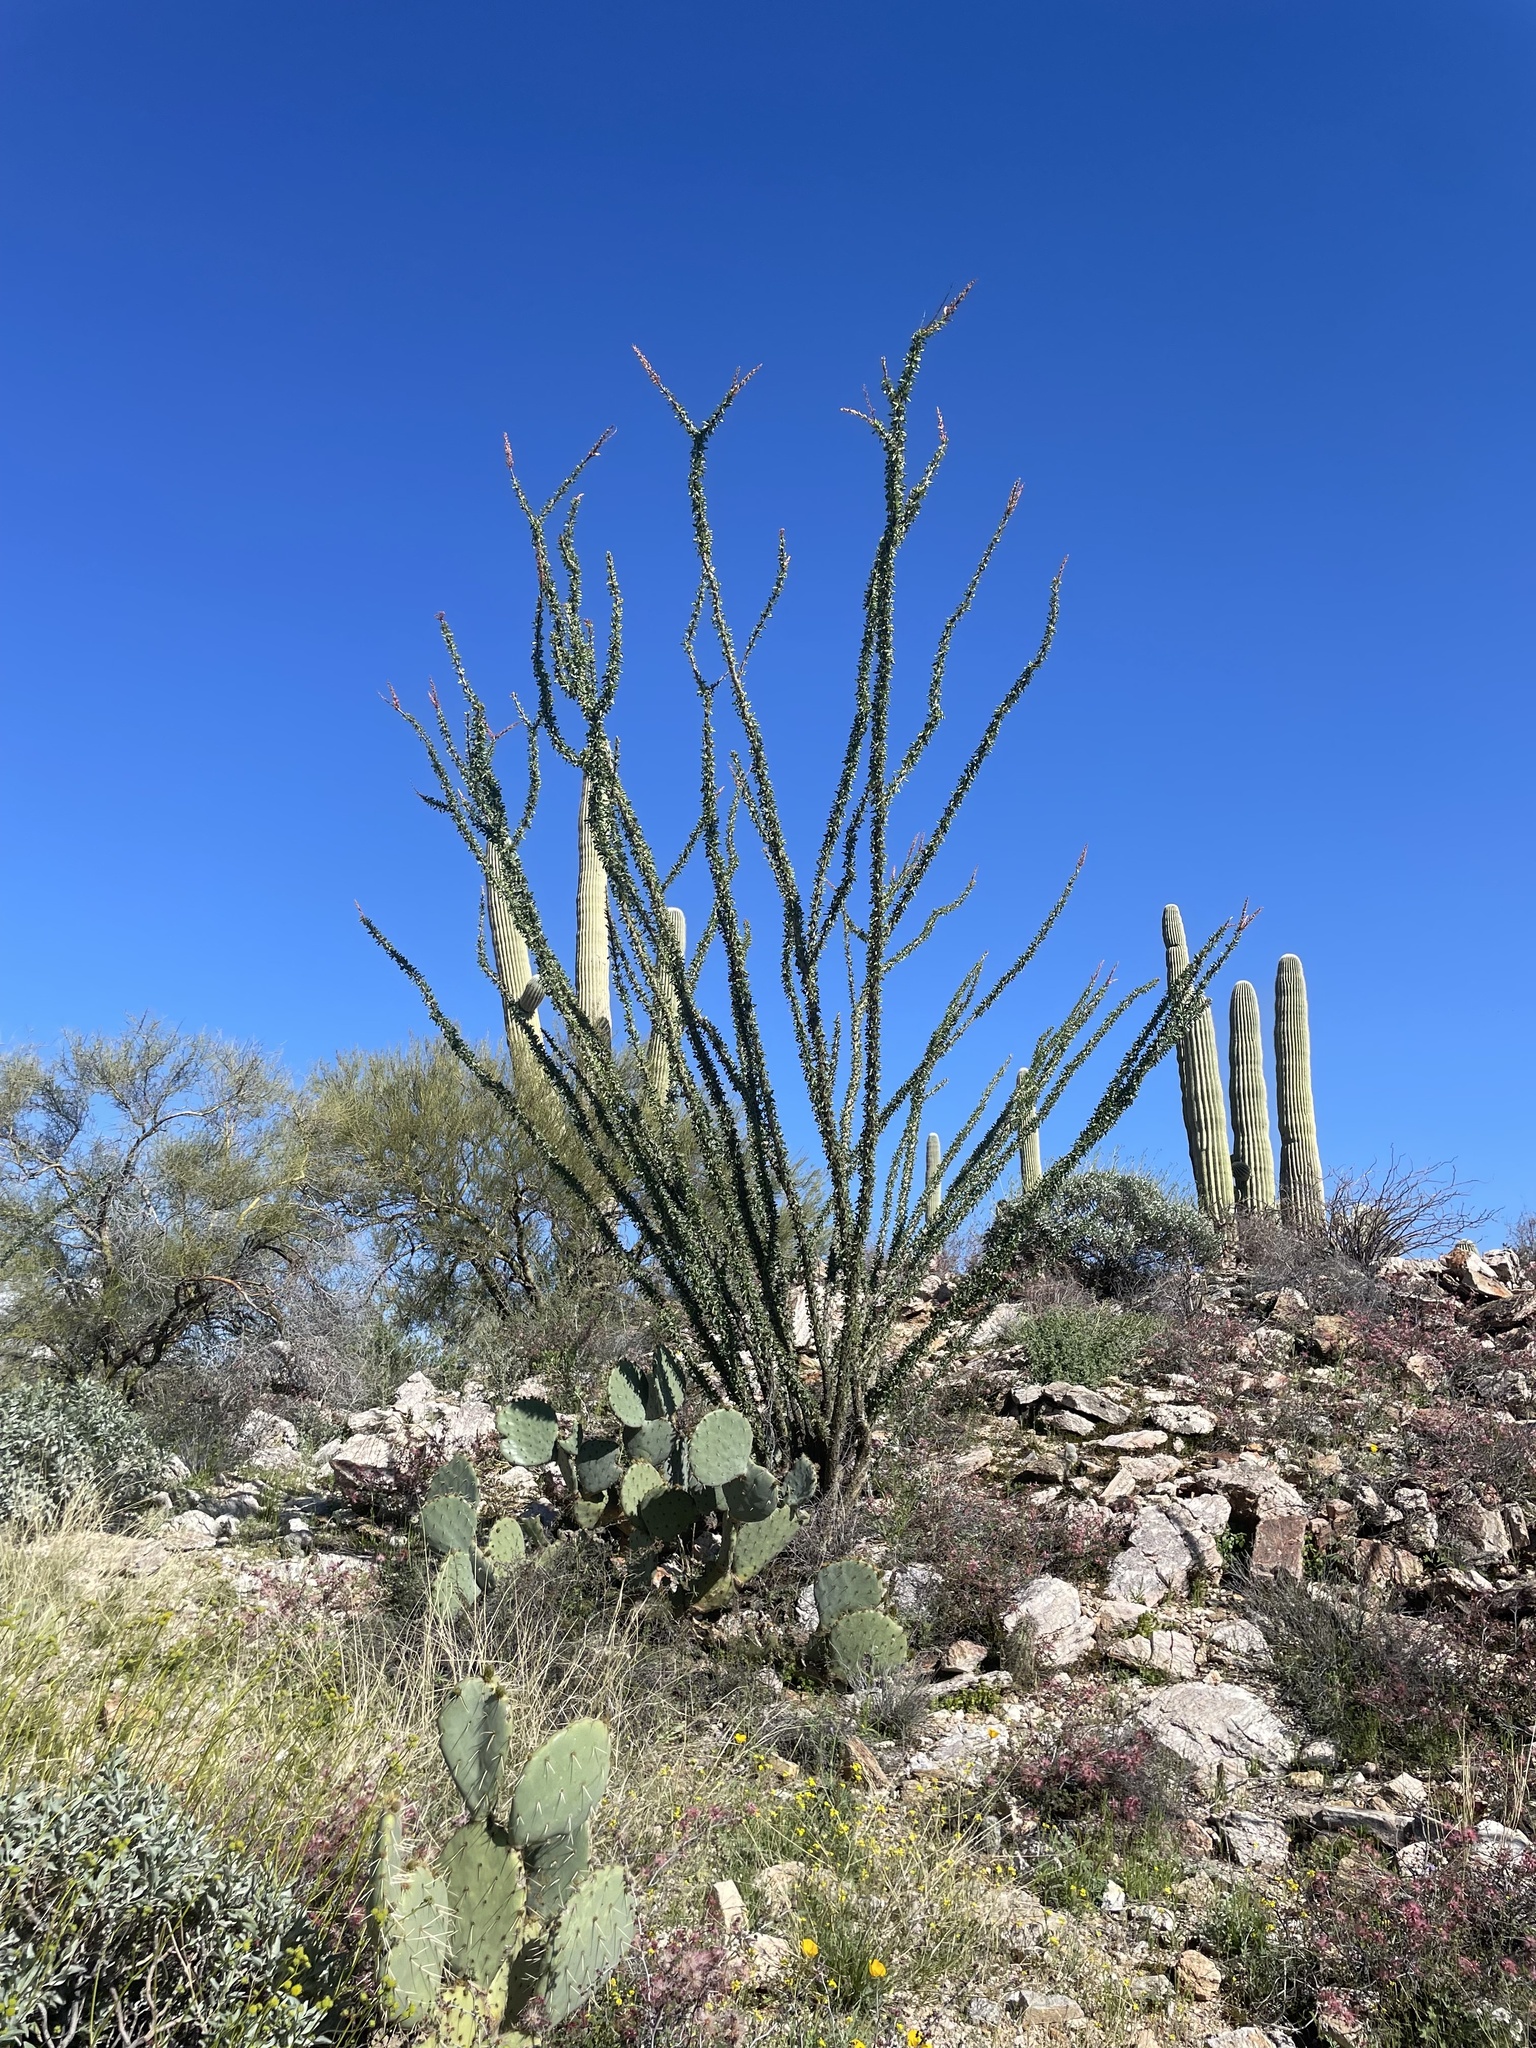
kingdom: Plantae
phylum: Tracheophyta
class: Magnoliopsida
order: Ericales
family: Fouquieriaceae
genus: Fouquieria
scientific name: Fouquieria splendens
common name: Vine-cactus
